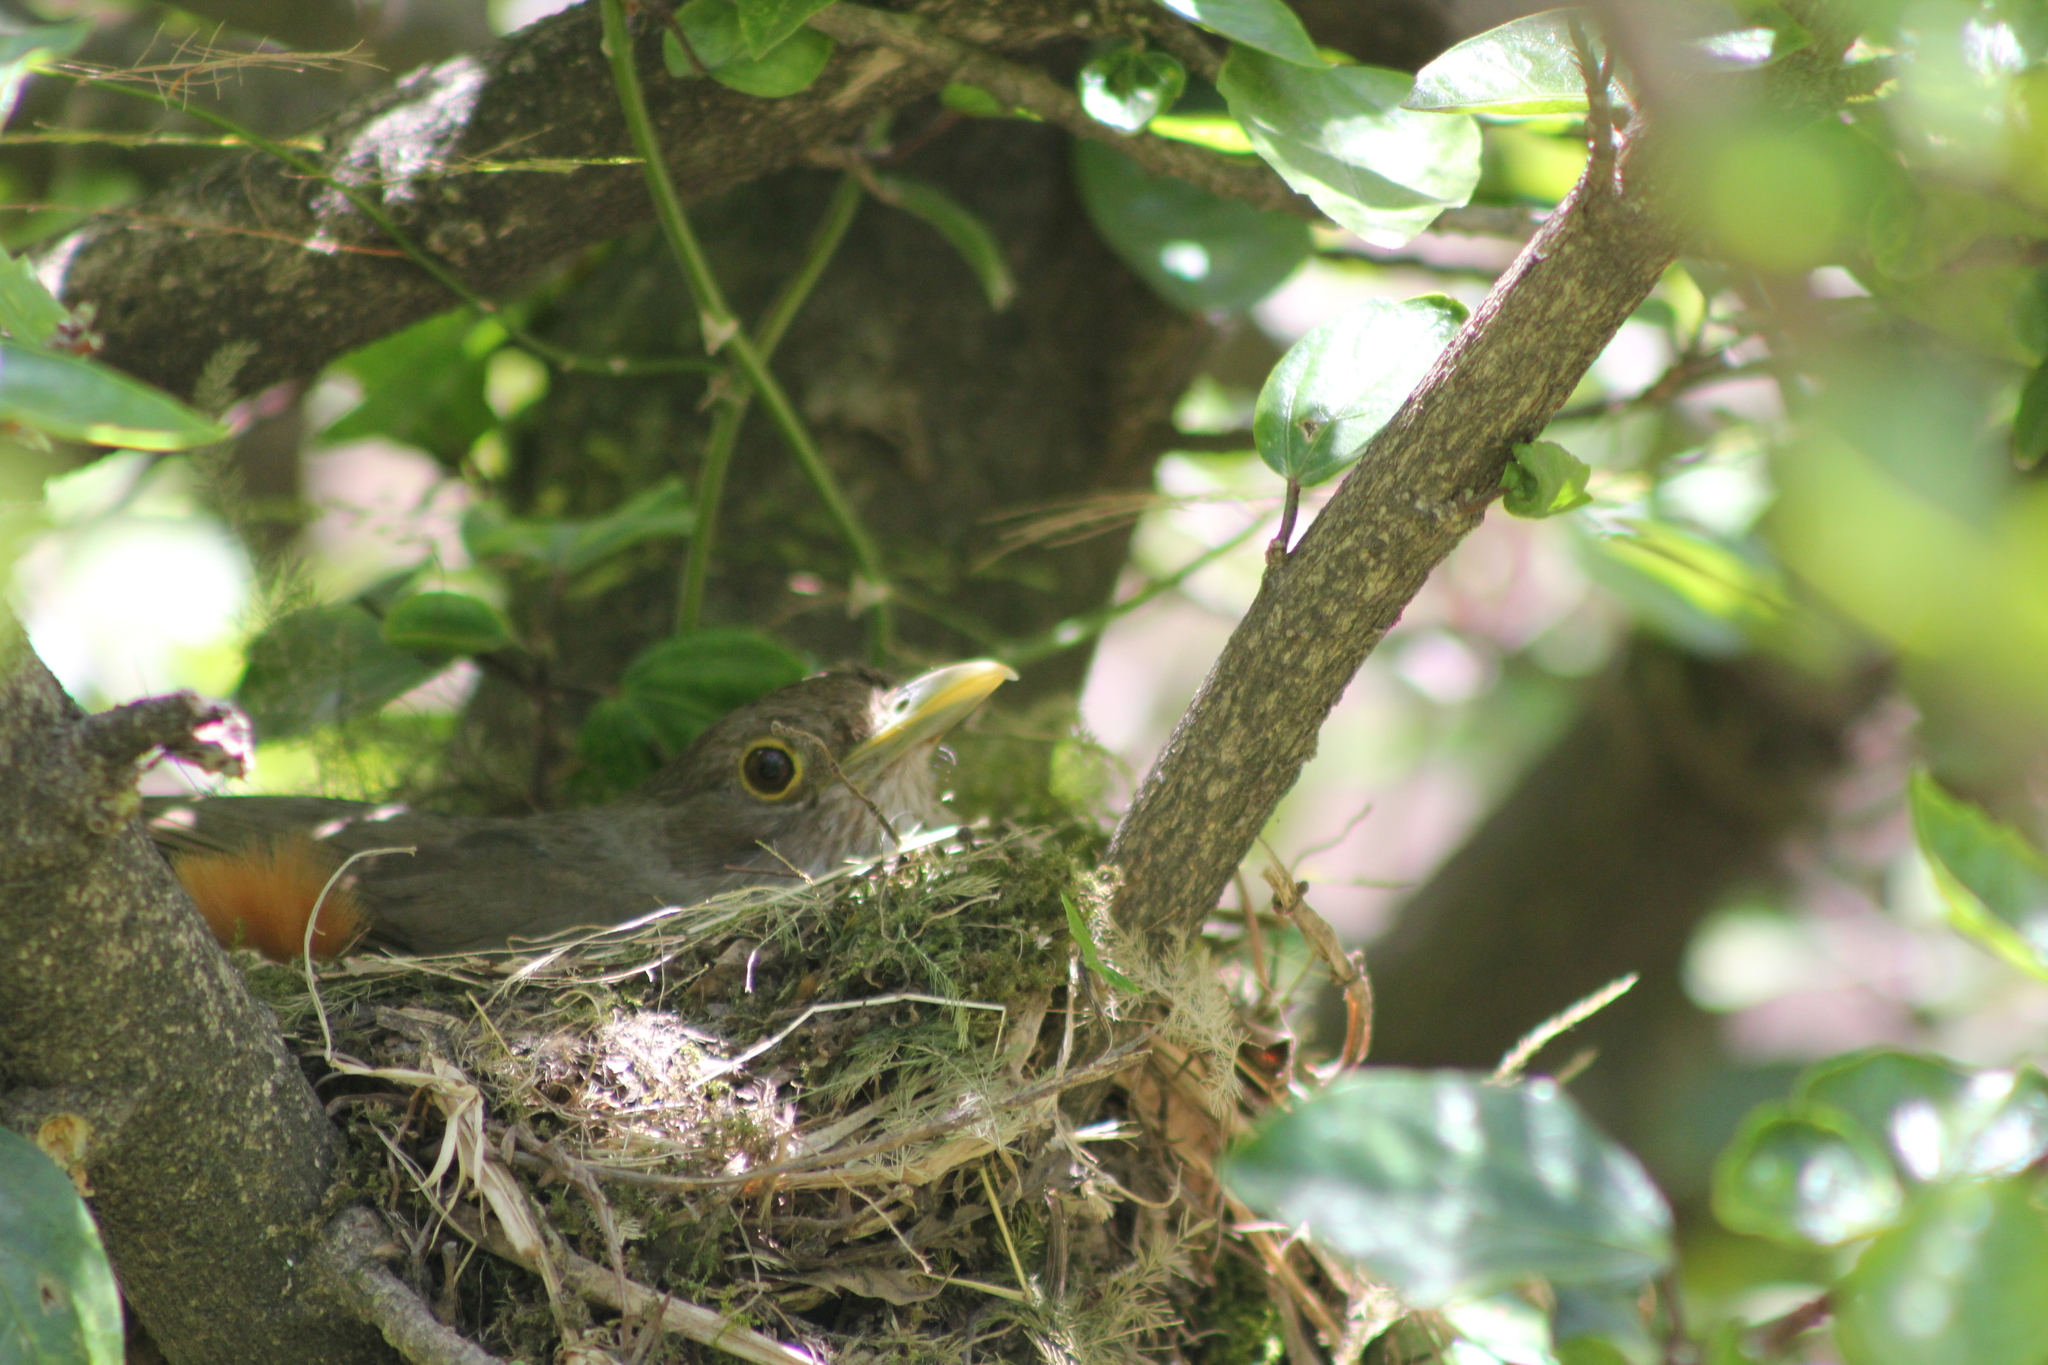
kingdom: Animalia
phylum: Chordata
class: Aves
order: Passeriformes
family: Turdidae
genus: Turdus
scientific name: Turdus rufiventris
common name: Rufous-bellied thrush
